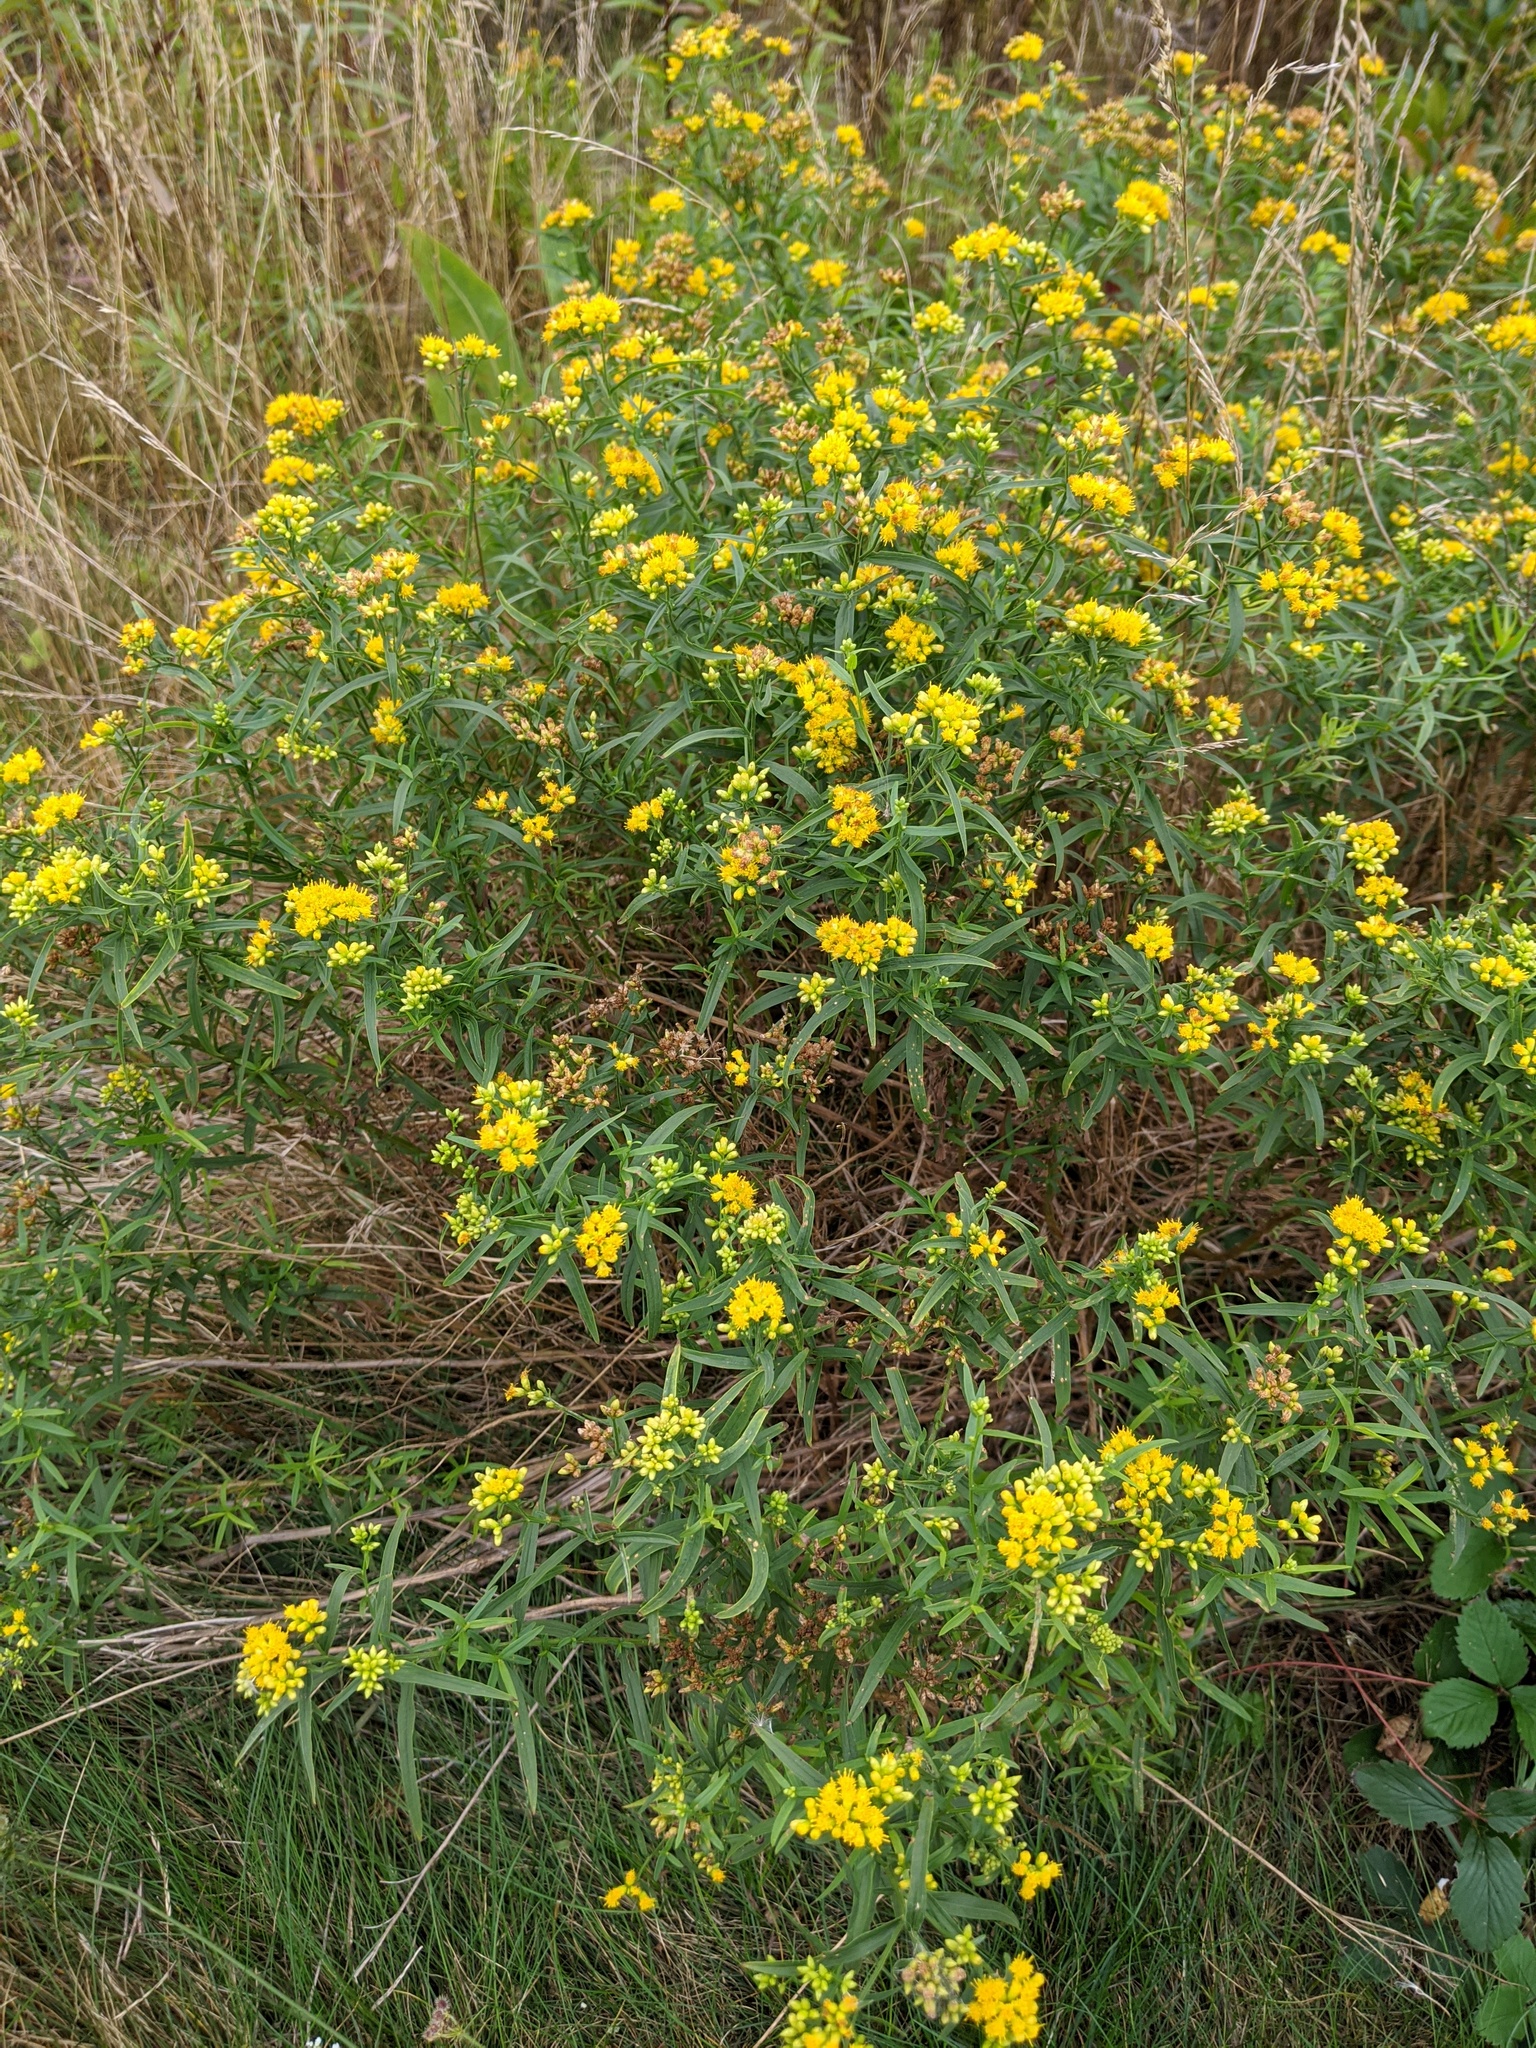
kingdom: Plantae
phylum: Tracheophyta
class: Magnoliopsida
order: Asterales
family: Asteraceae
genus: Euthamia
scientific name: Euthamia graminifolia
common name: Common goldentop
